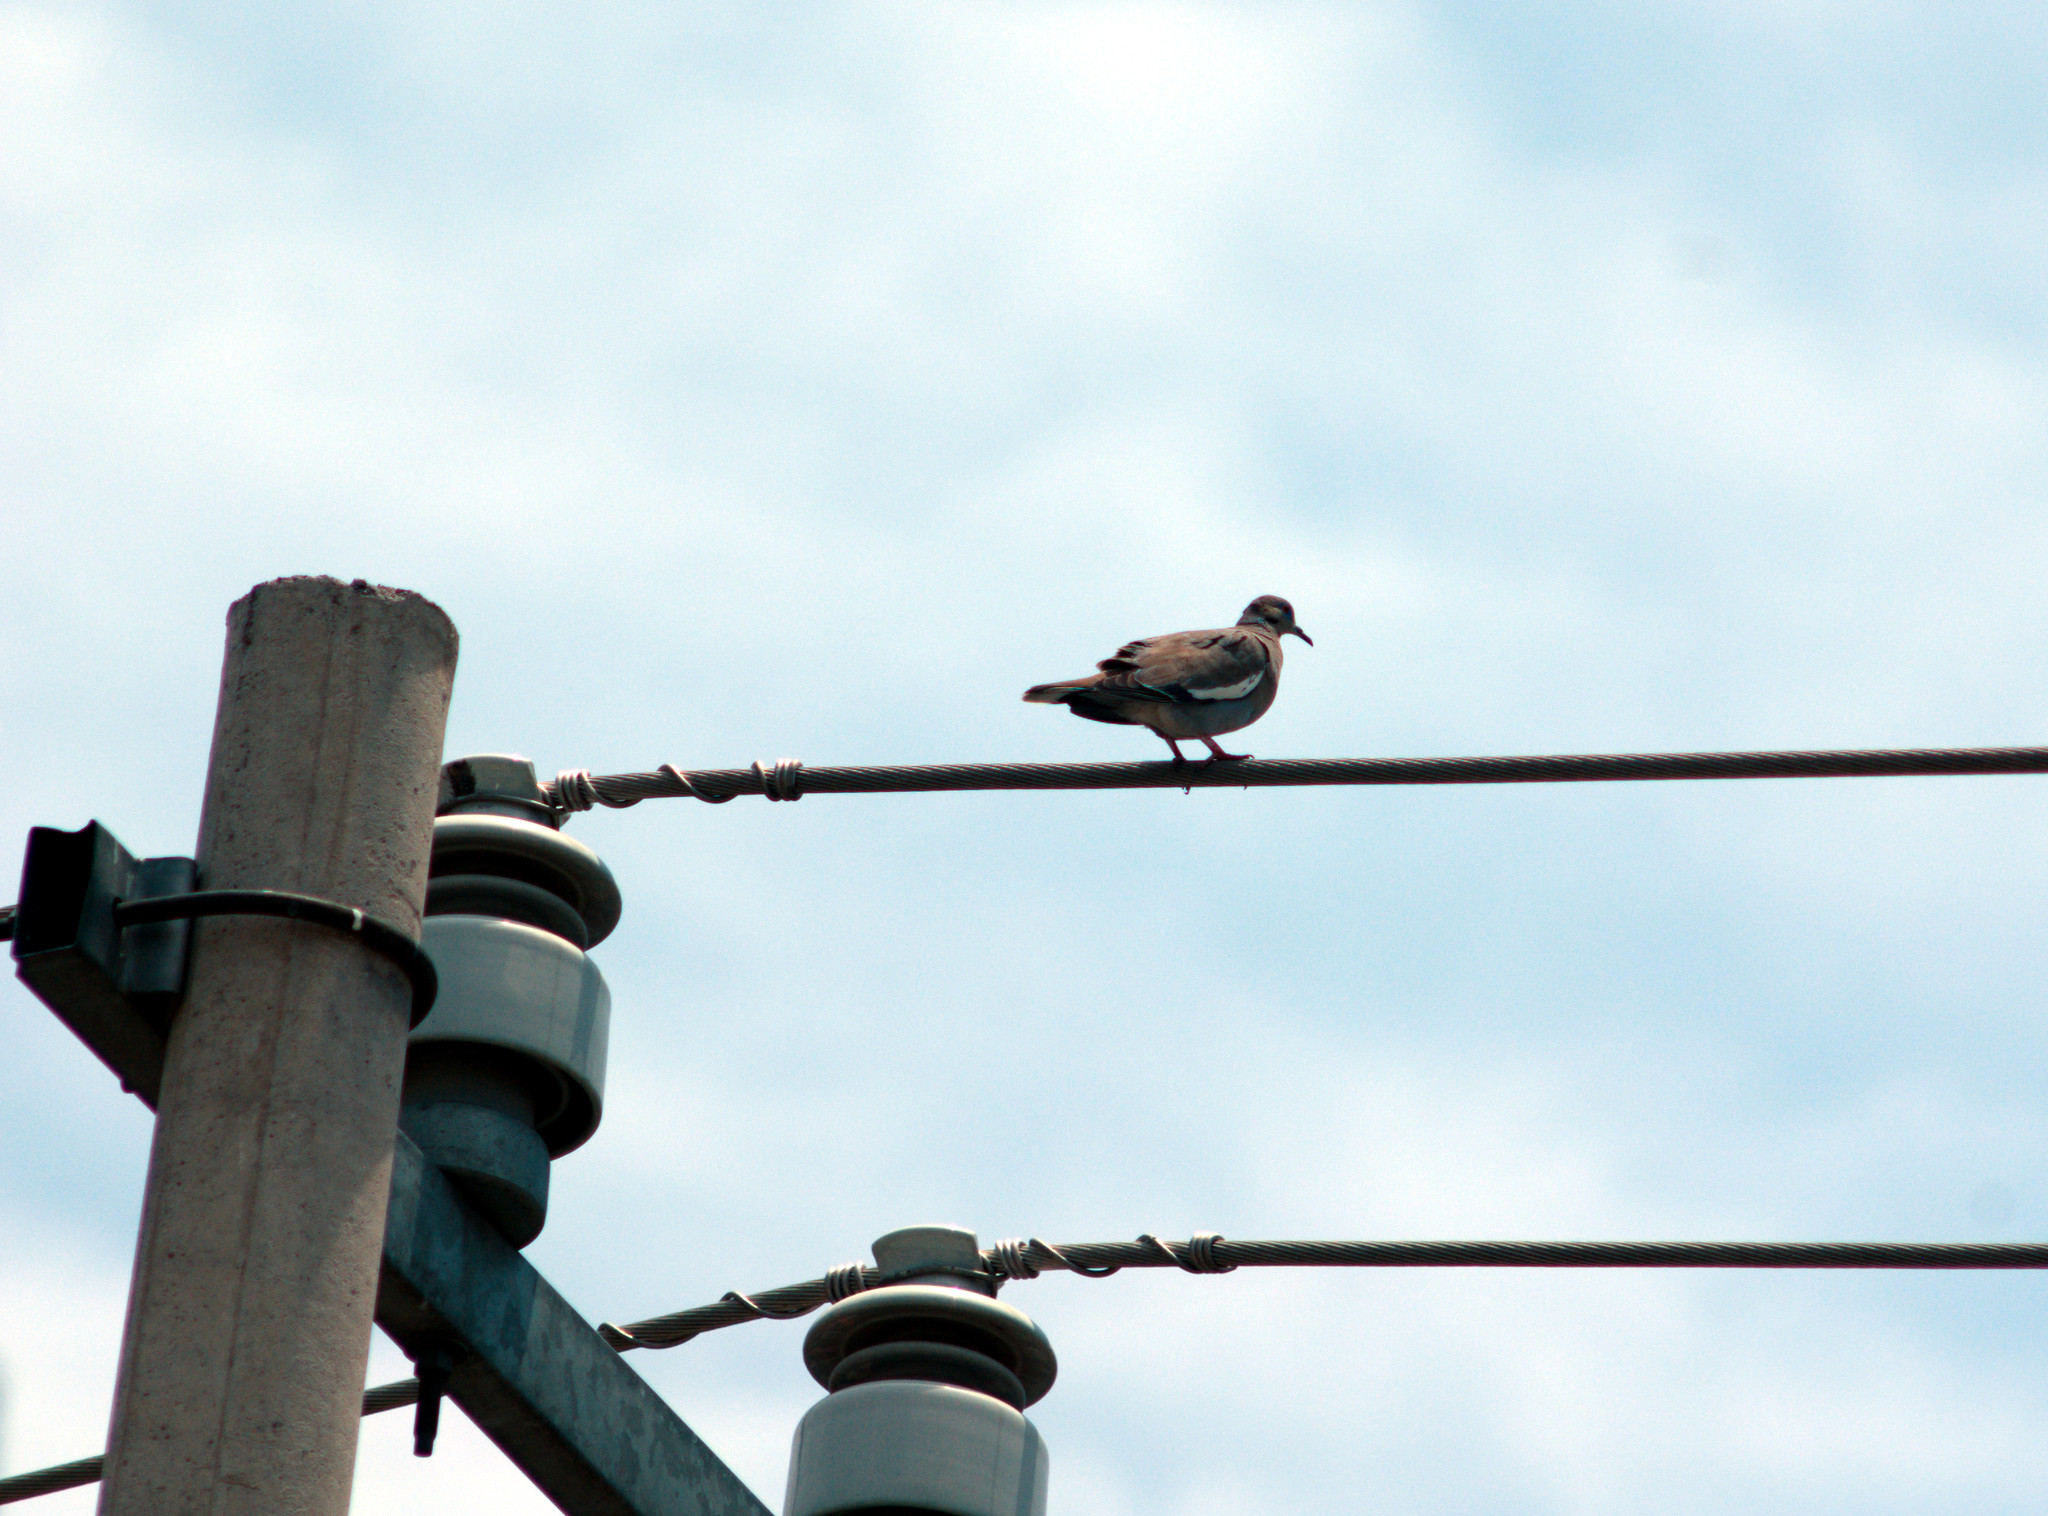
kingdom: Animalia
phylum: Chordata
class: Aves
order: Columbiformes
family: Columbidae
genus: Zenaida
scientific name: Zenaida asiatica
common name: White-winged dove
